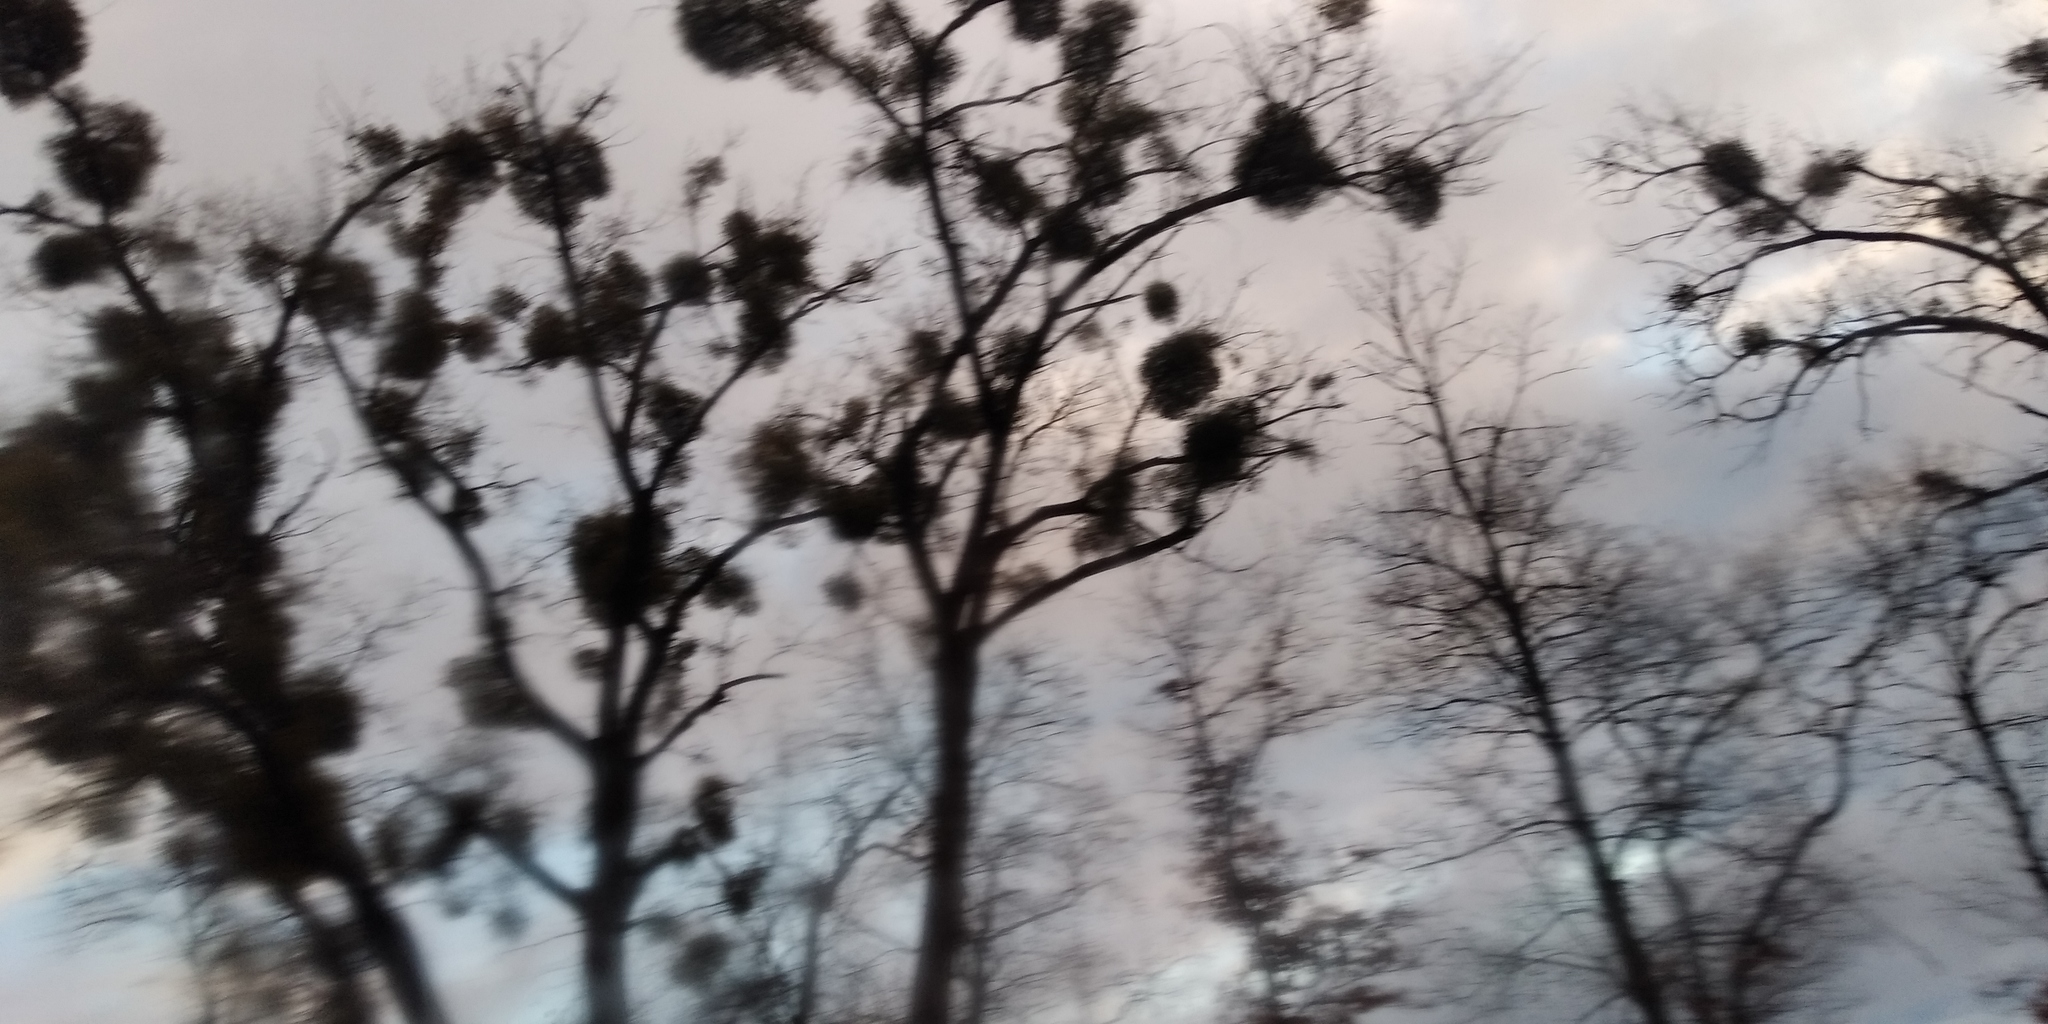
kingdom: Plantae
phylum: Tracheophyta
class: Magnoliopsida
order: Santalales
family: Viscaceae
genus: Viscum
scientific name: Viscum album
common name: Mistletoe
